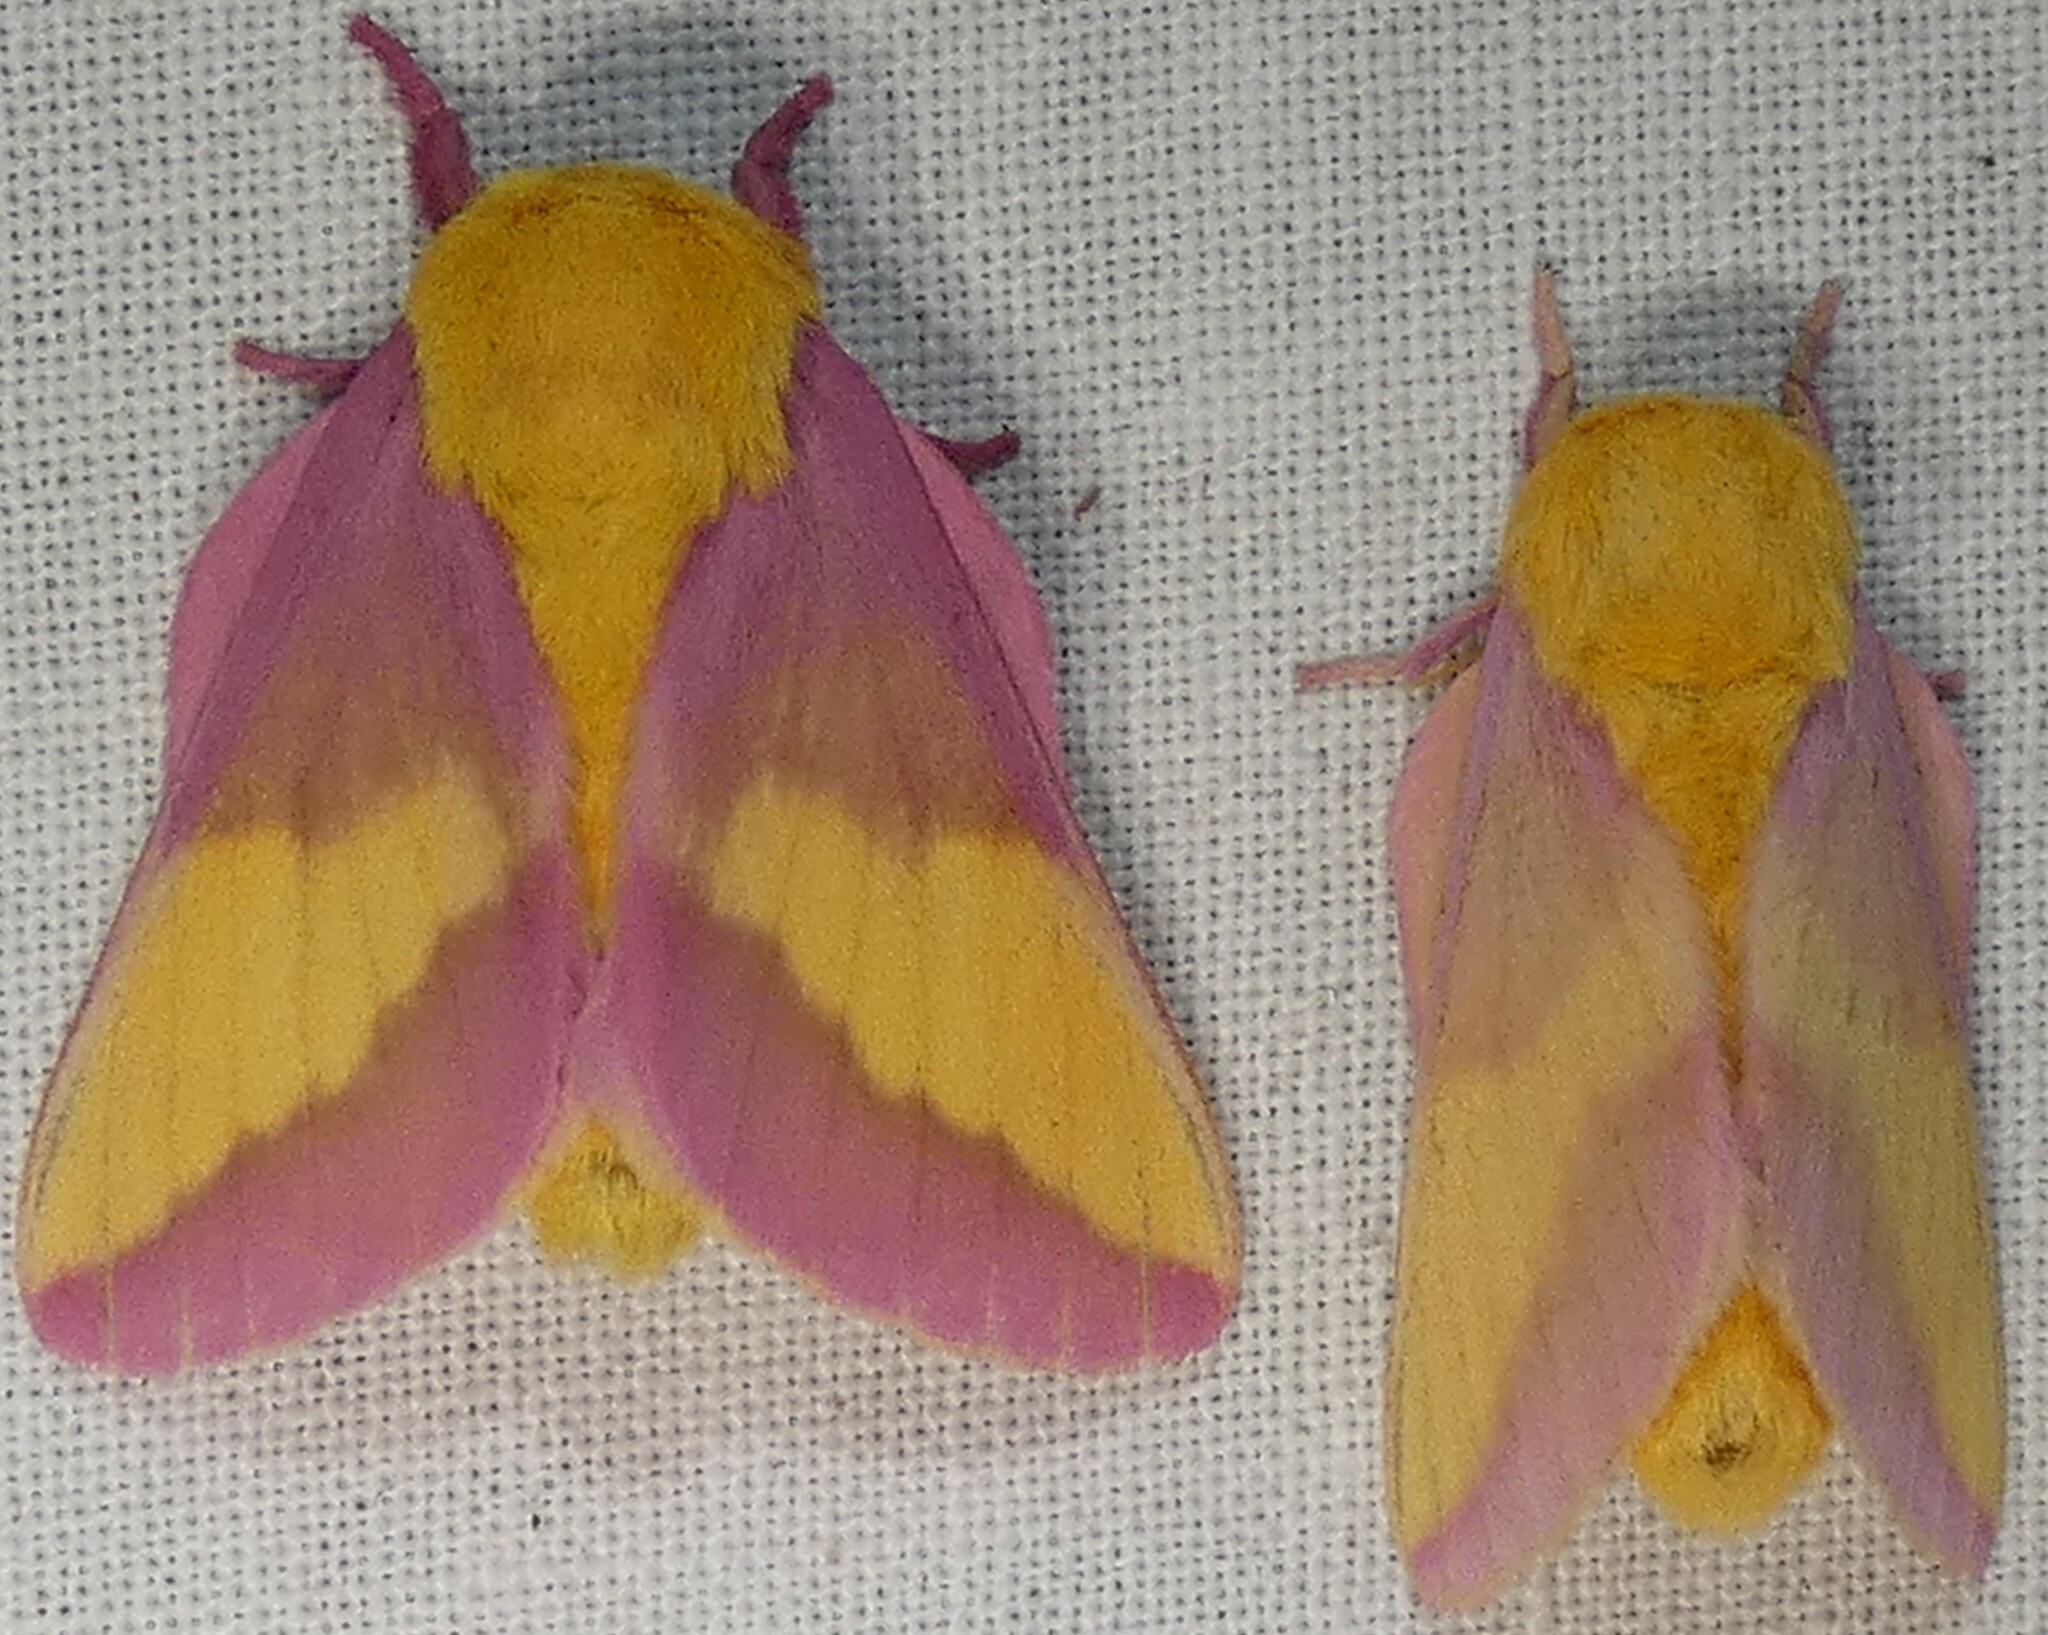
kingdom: Animalia
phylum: Arthropoda
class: Insecta
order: Lepidoptera
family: Saturniidae
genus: Dryocampa
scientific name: Dryocampa rubicunda
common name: Rosy maple moth
